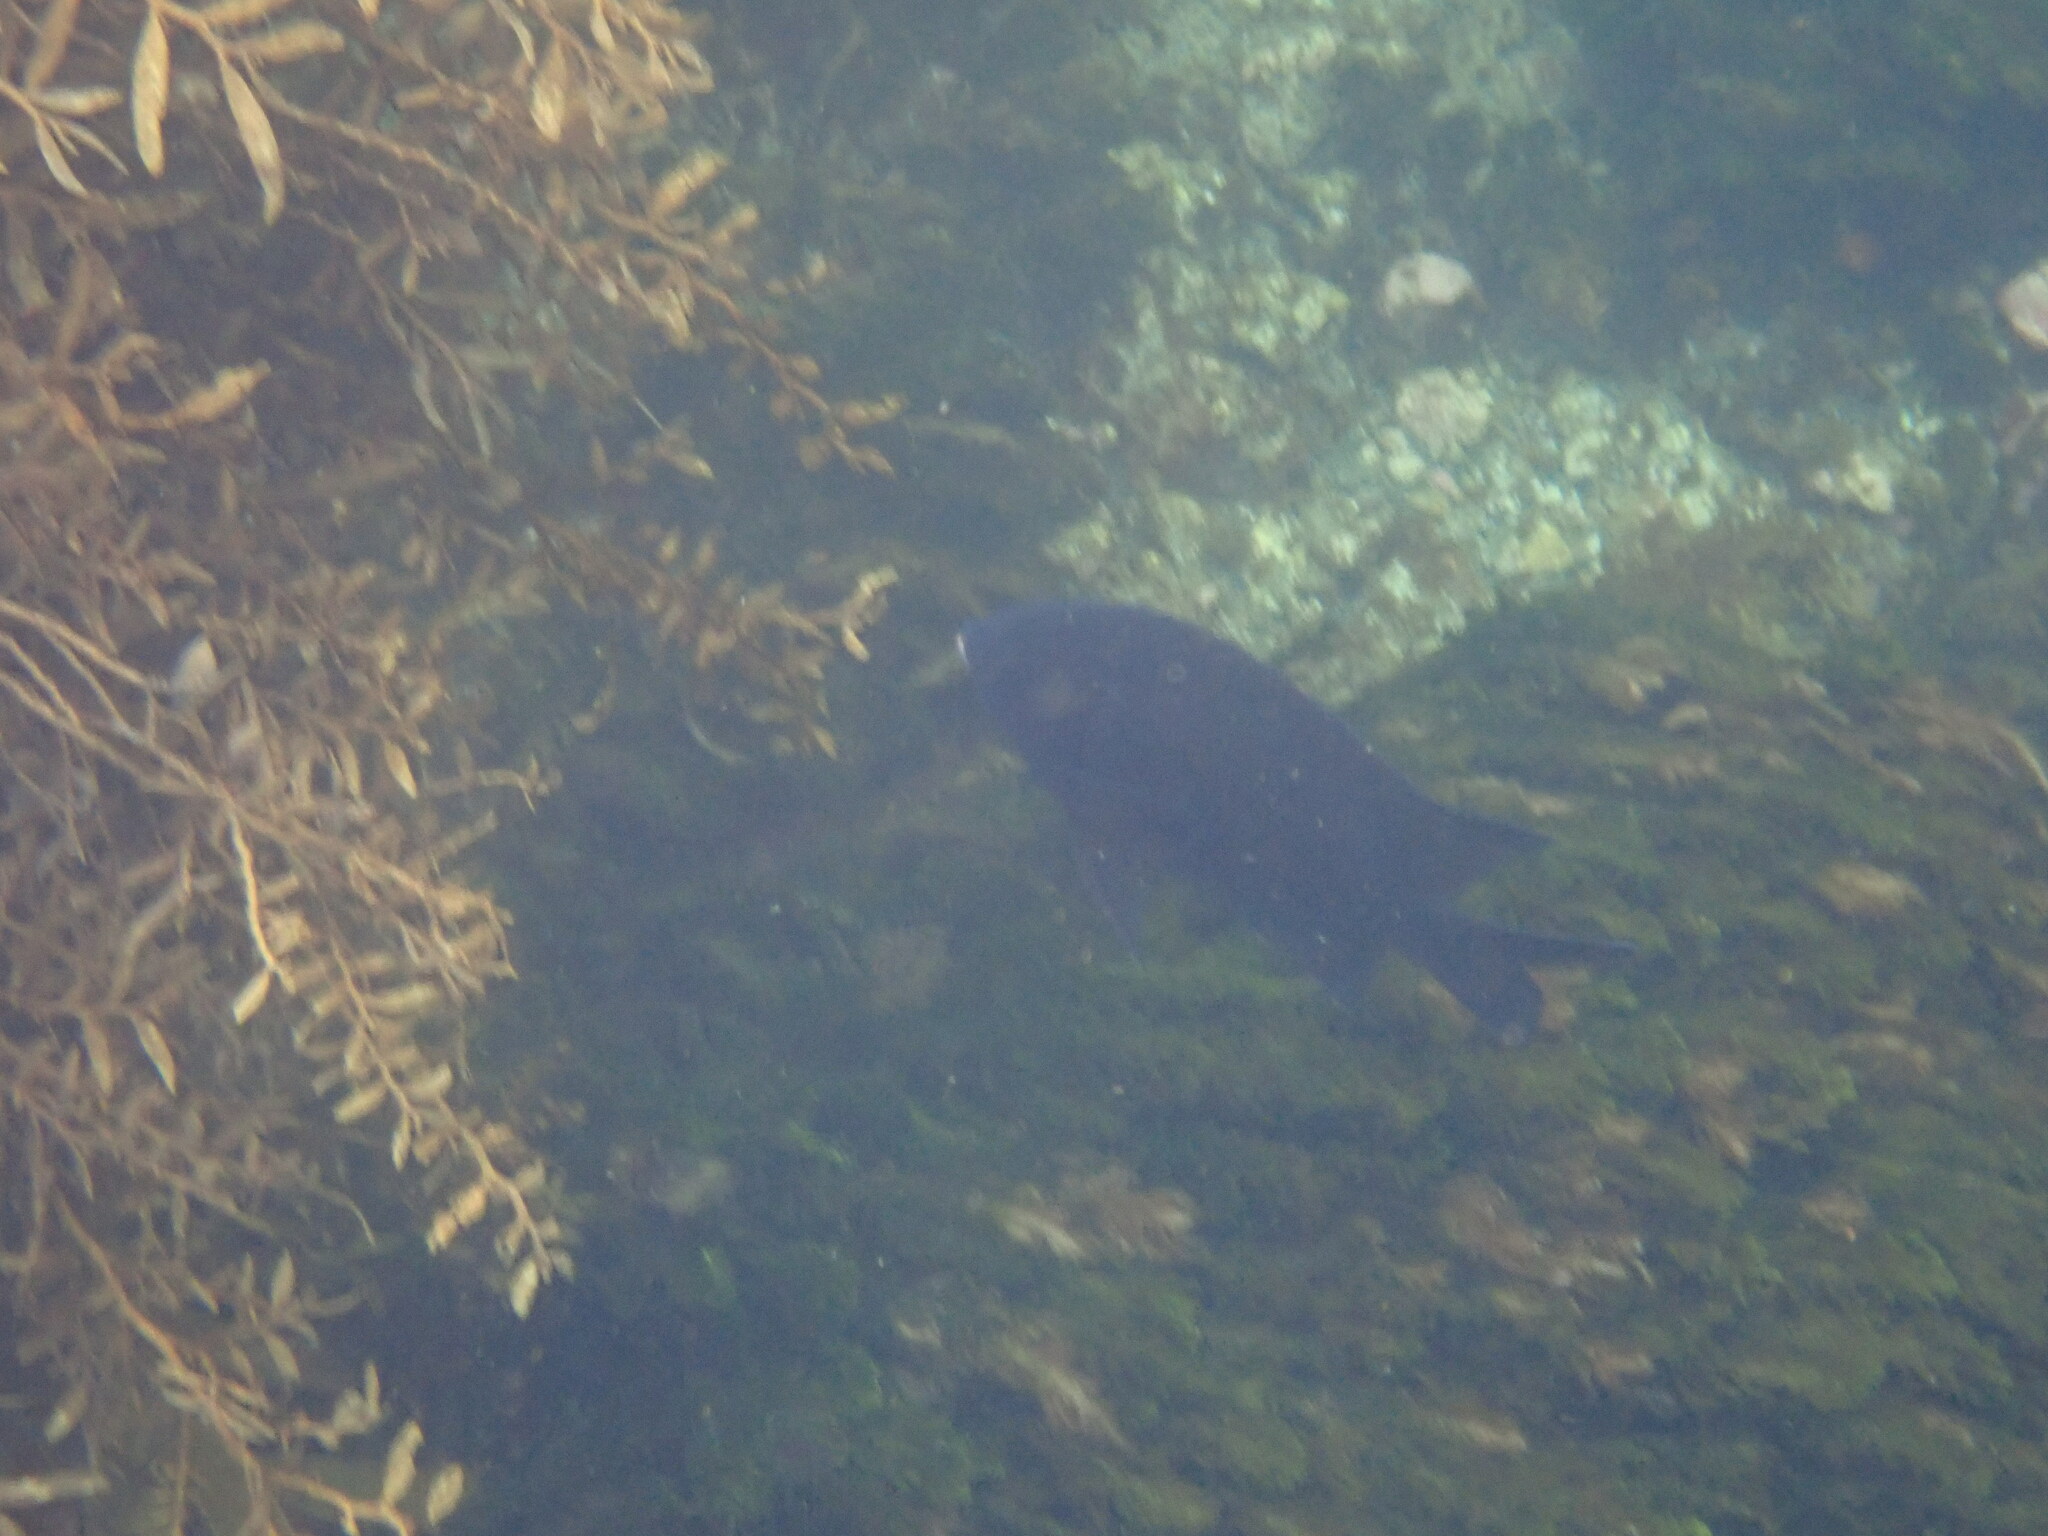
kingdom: Animalia
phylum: Chordata
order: Perciformes
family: Pomacentridae
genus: Parma
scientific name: Parma alboscapularis
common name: Black angelfish
